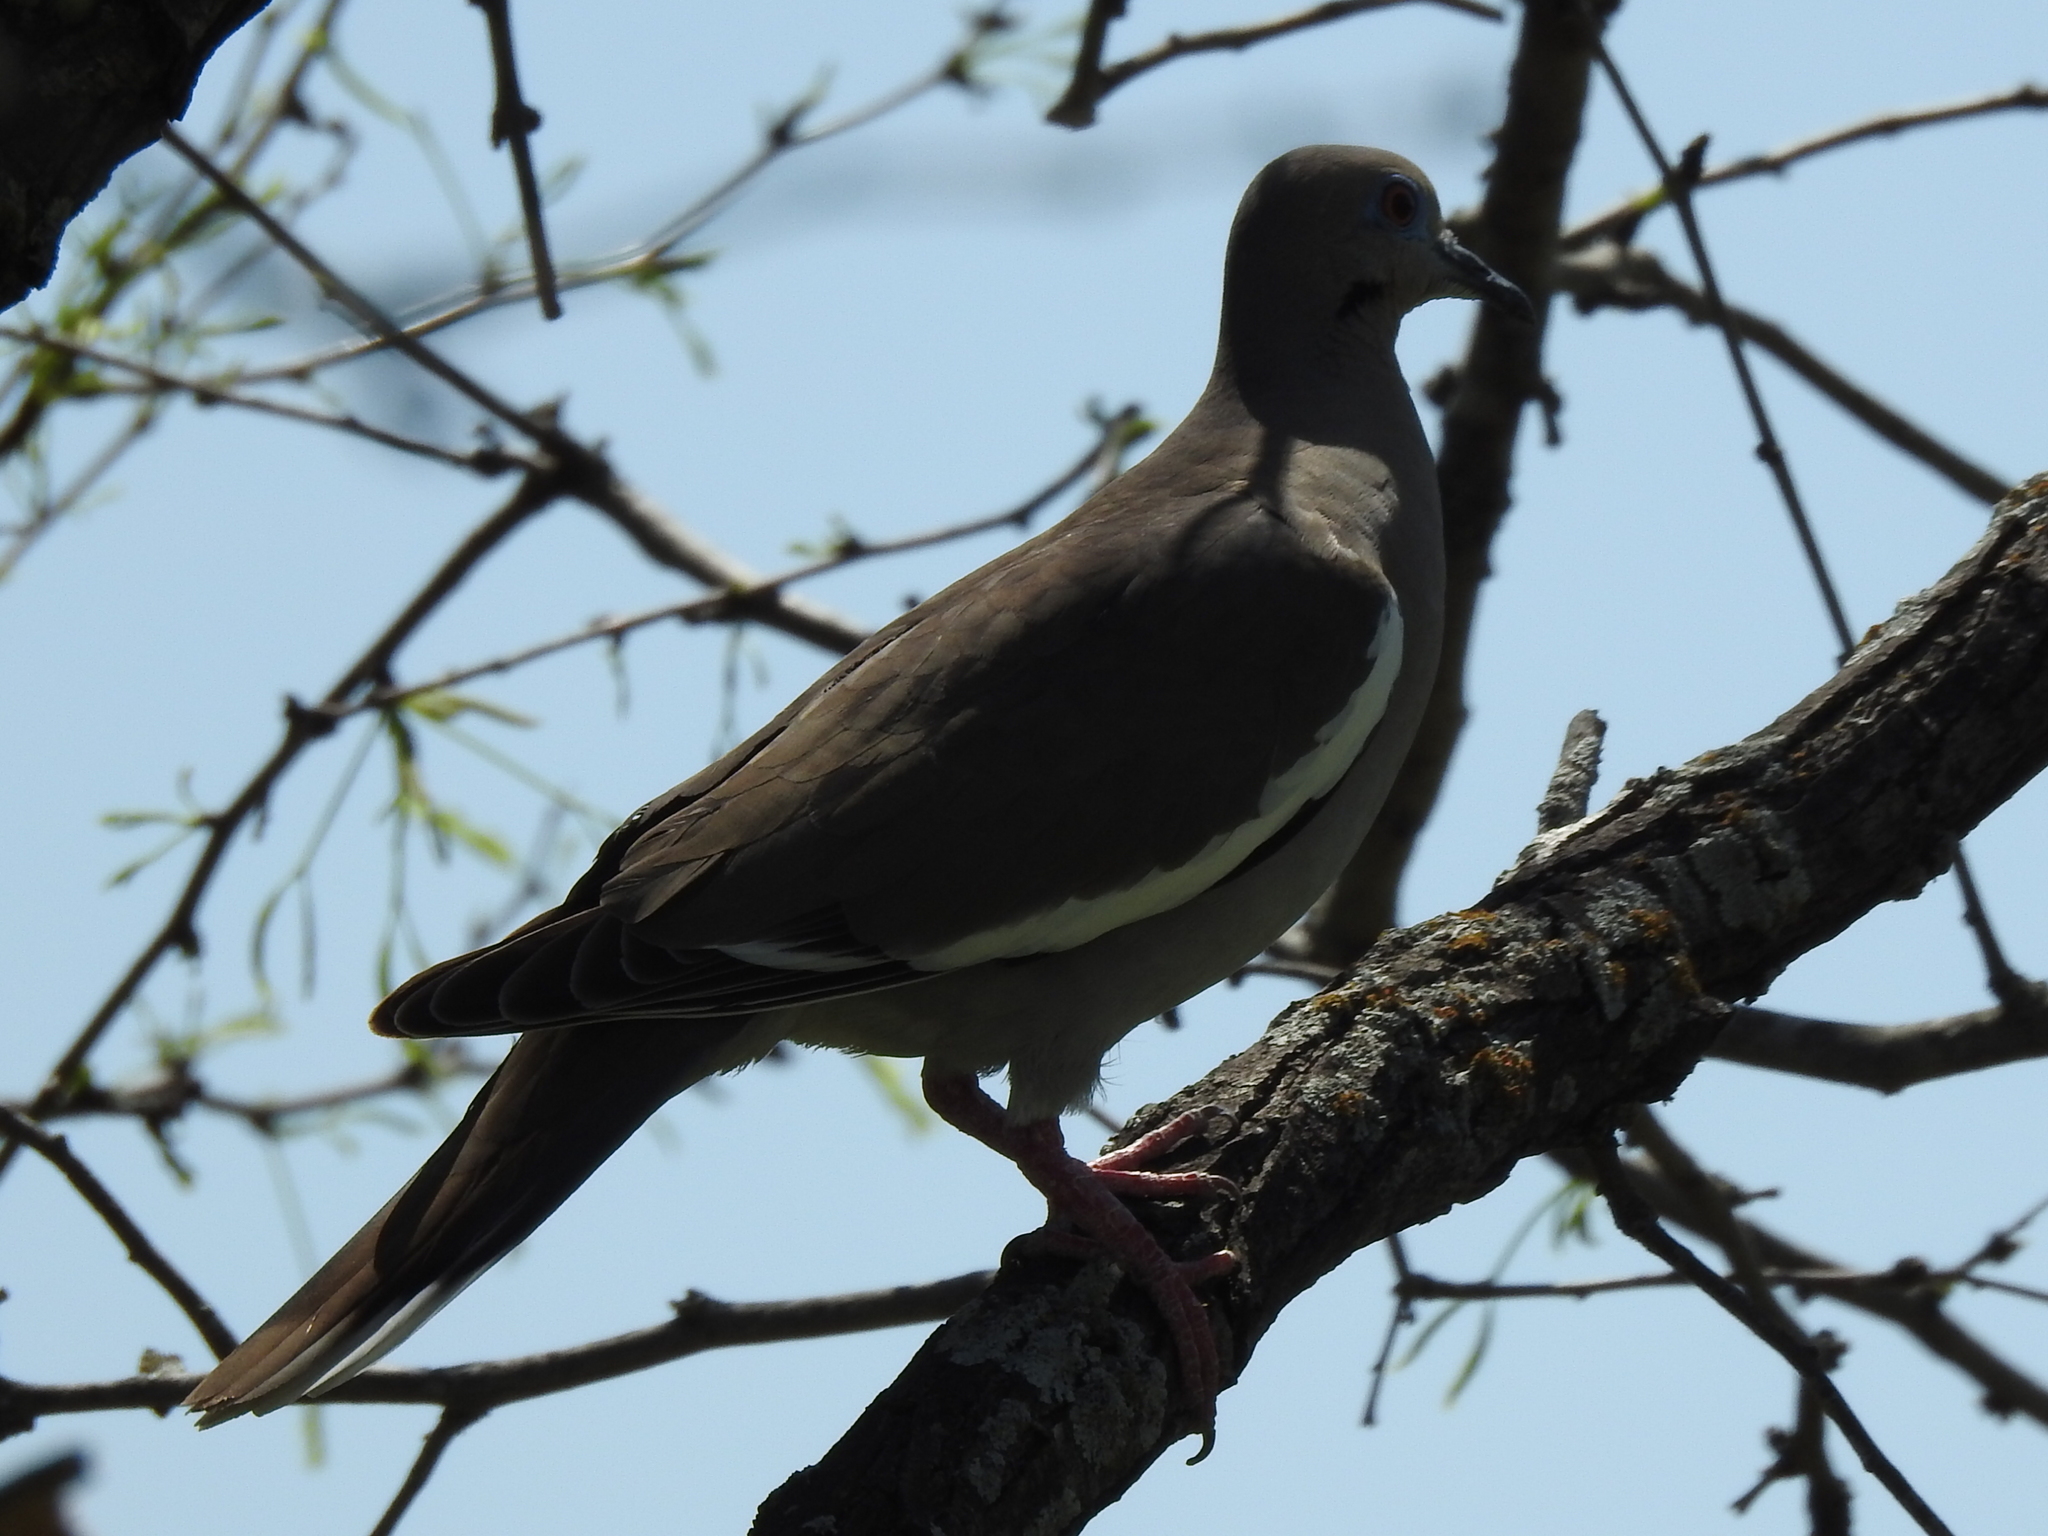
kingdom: Animalia
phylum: Chordata
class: Aves
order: Columbiformes
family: Columbidae
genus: Zenaida
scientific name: Zenaida asiatica
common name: White-winged dove
